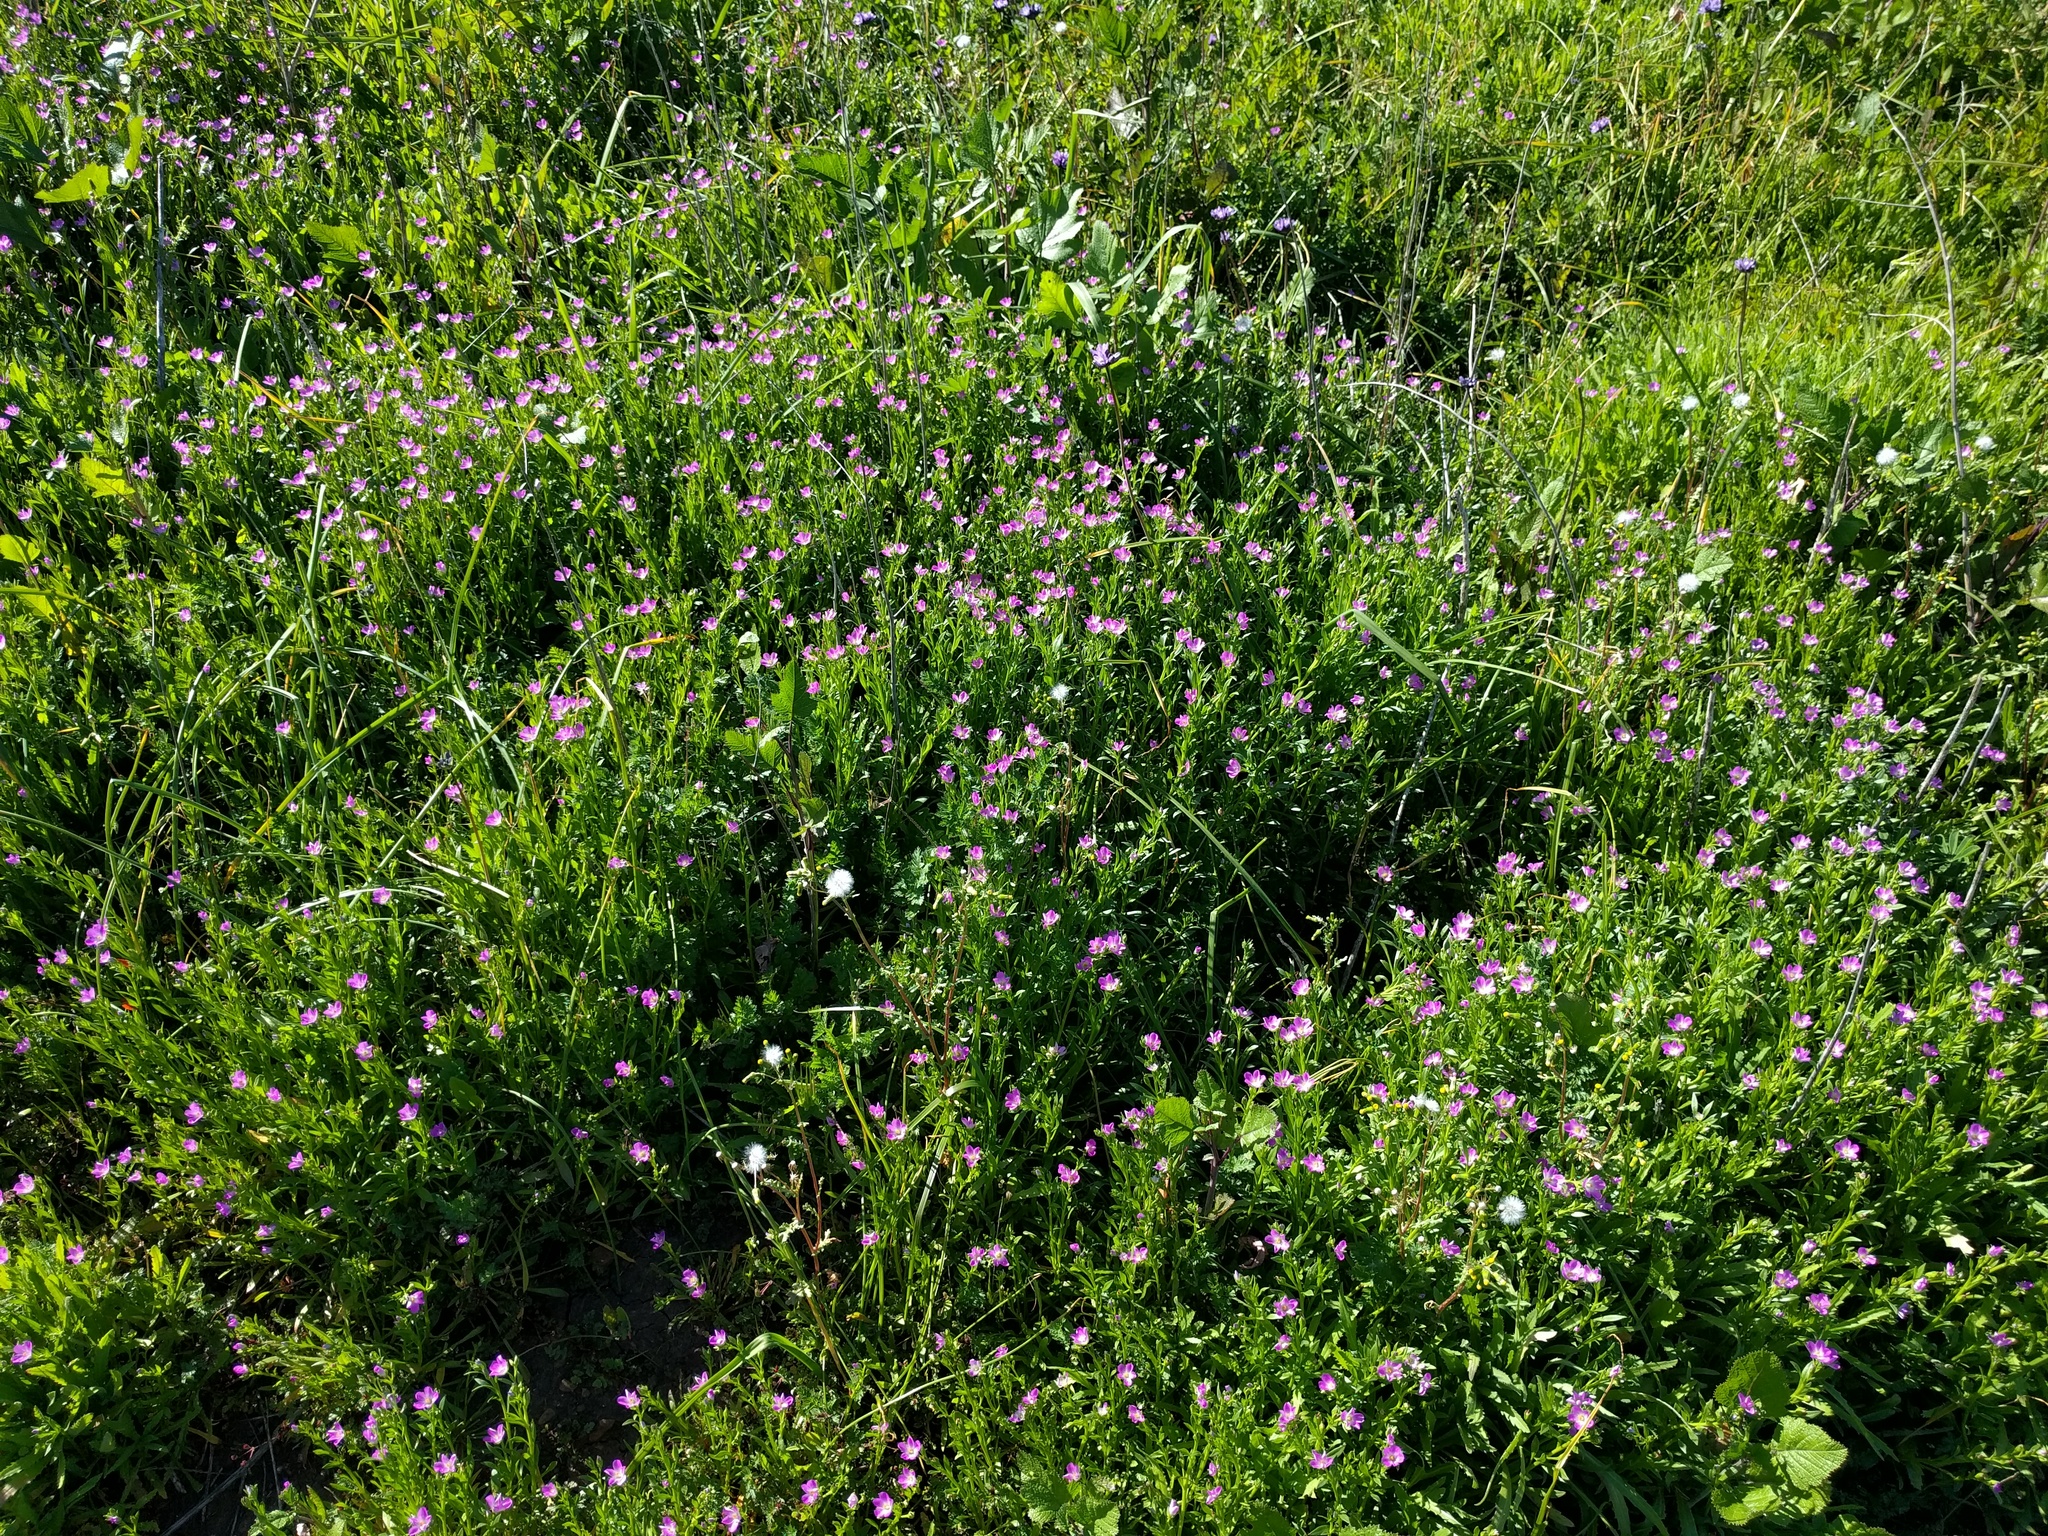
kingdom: Plantae
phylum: Tracheophyta
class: Magnoliopsida
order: Caryophyllales
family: Montiaceae
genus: Calandrinia
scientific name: Calandrinia menziesii
